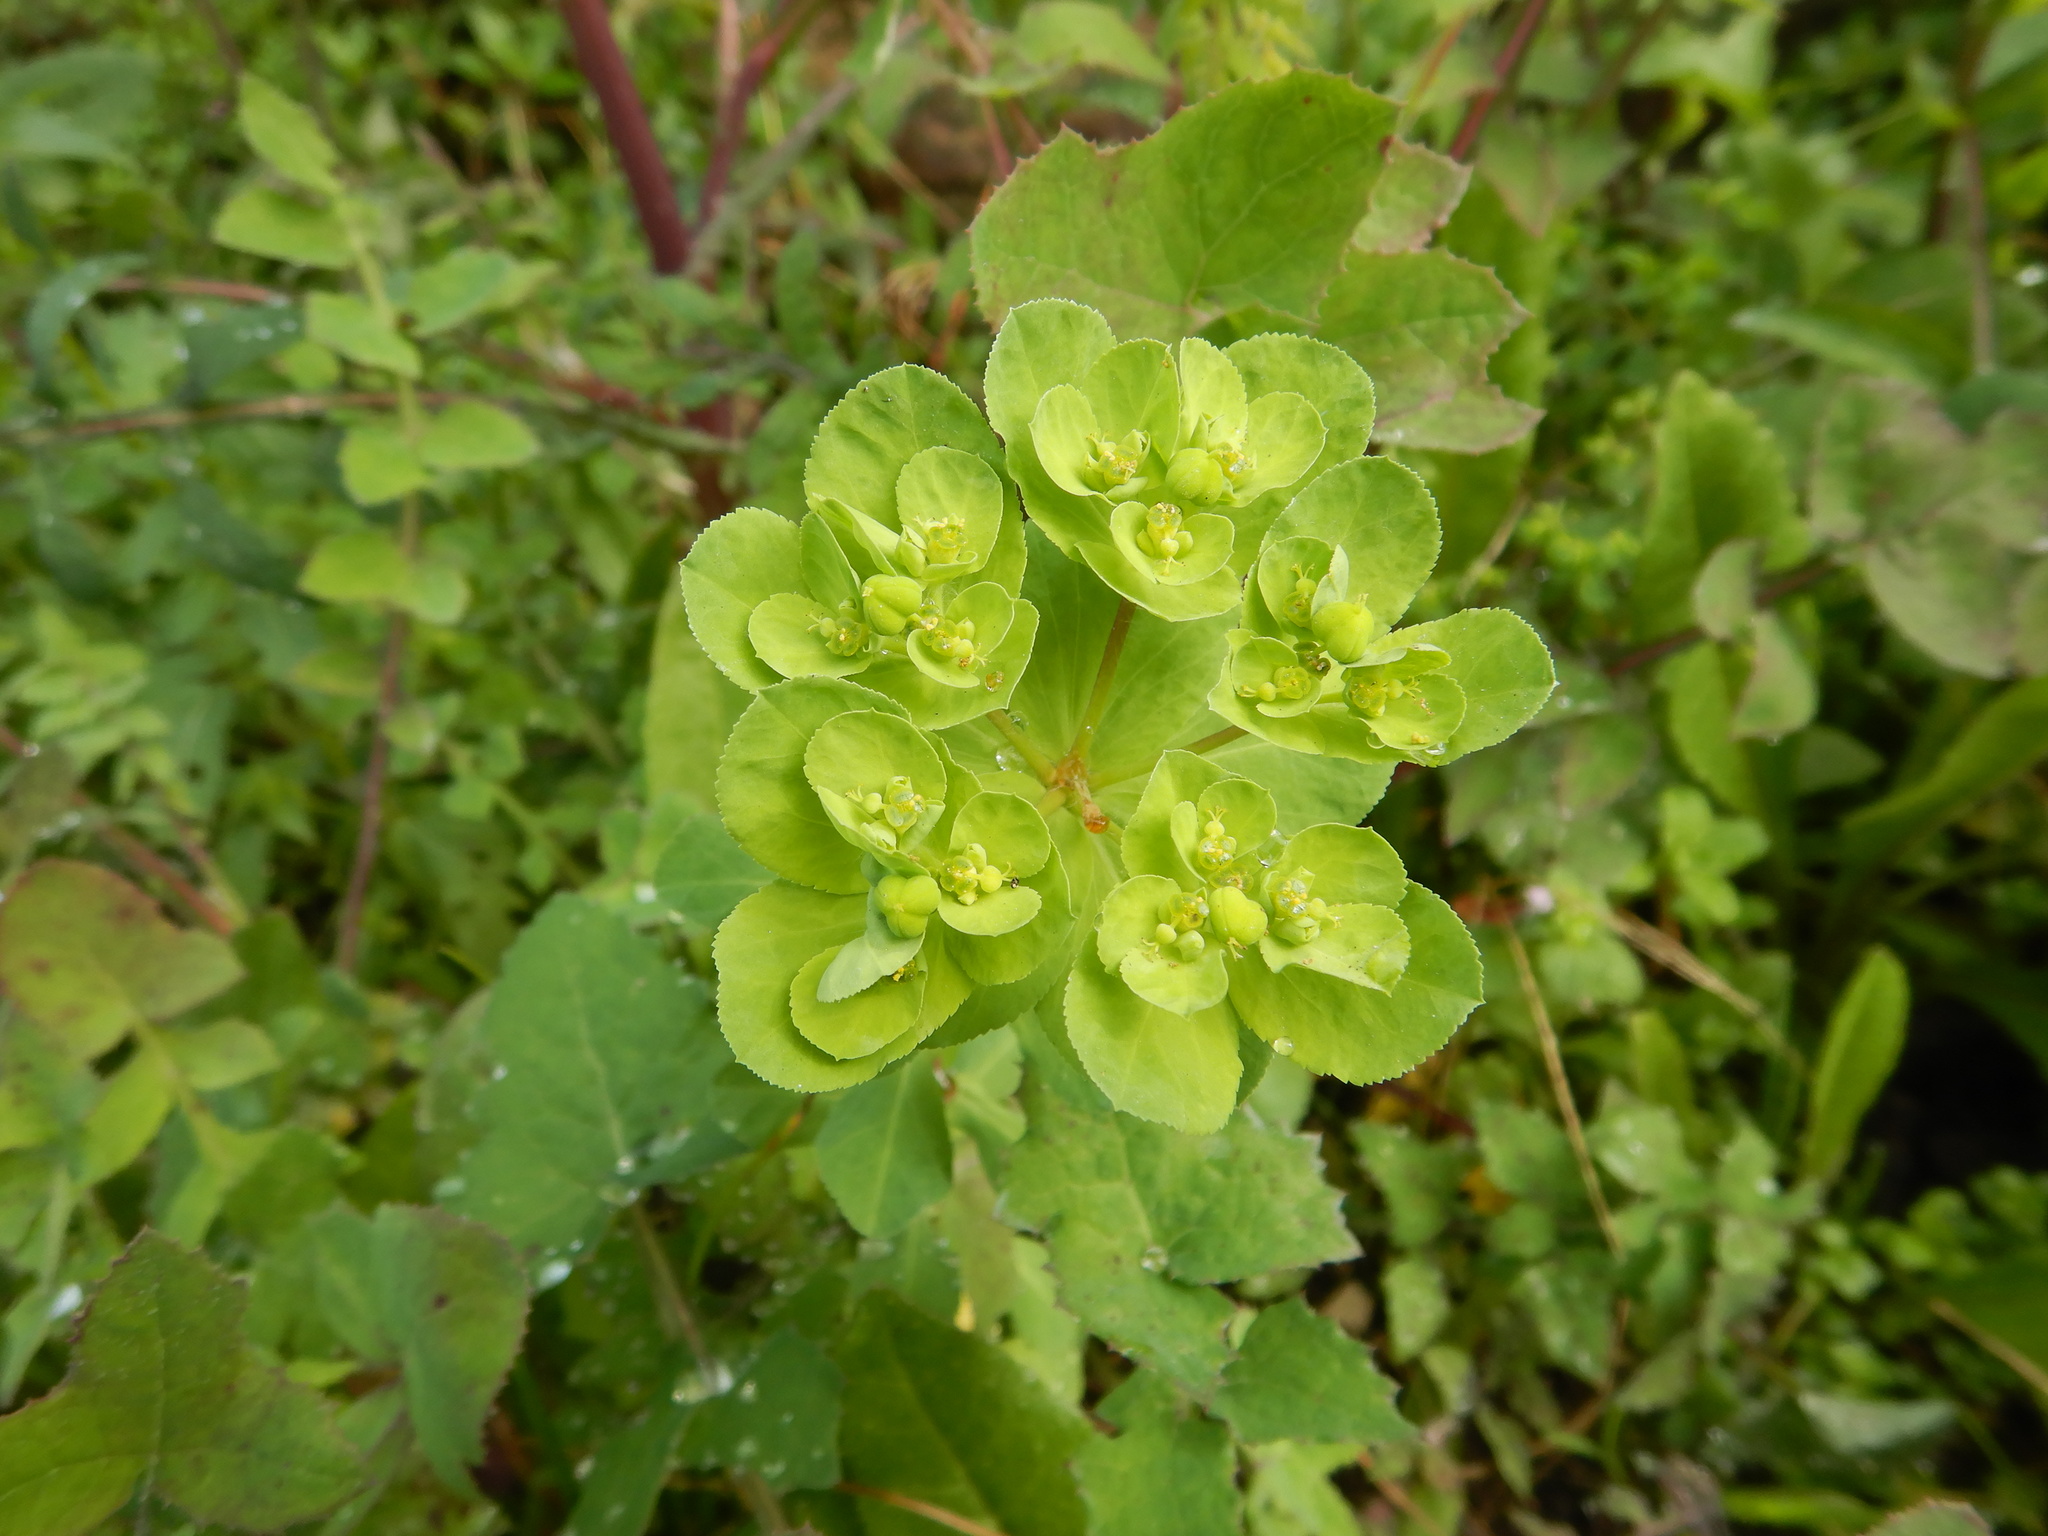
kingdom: Plantae
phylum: Tracheophyta
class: Magnoliopsida
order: Malpighiales
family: Euphorbiaceae
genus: Euphorbia
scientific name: Euphorbia helioscopia
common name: Sun spurge
